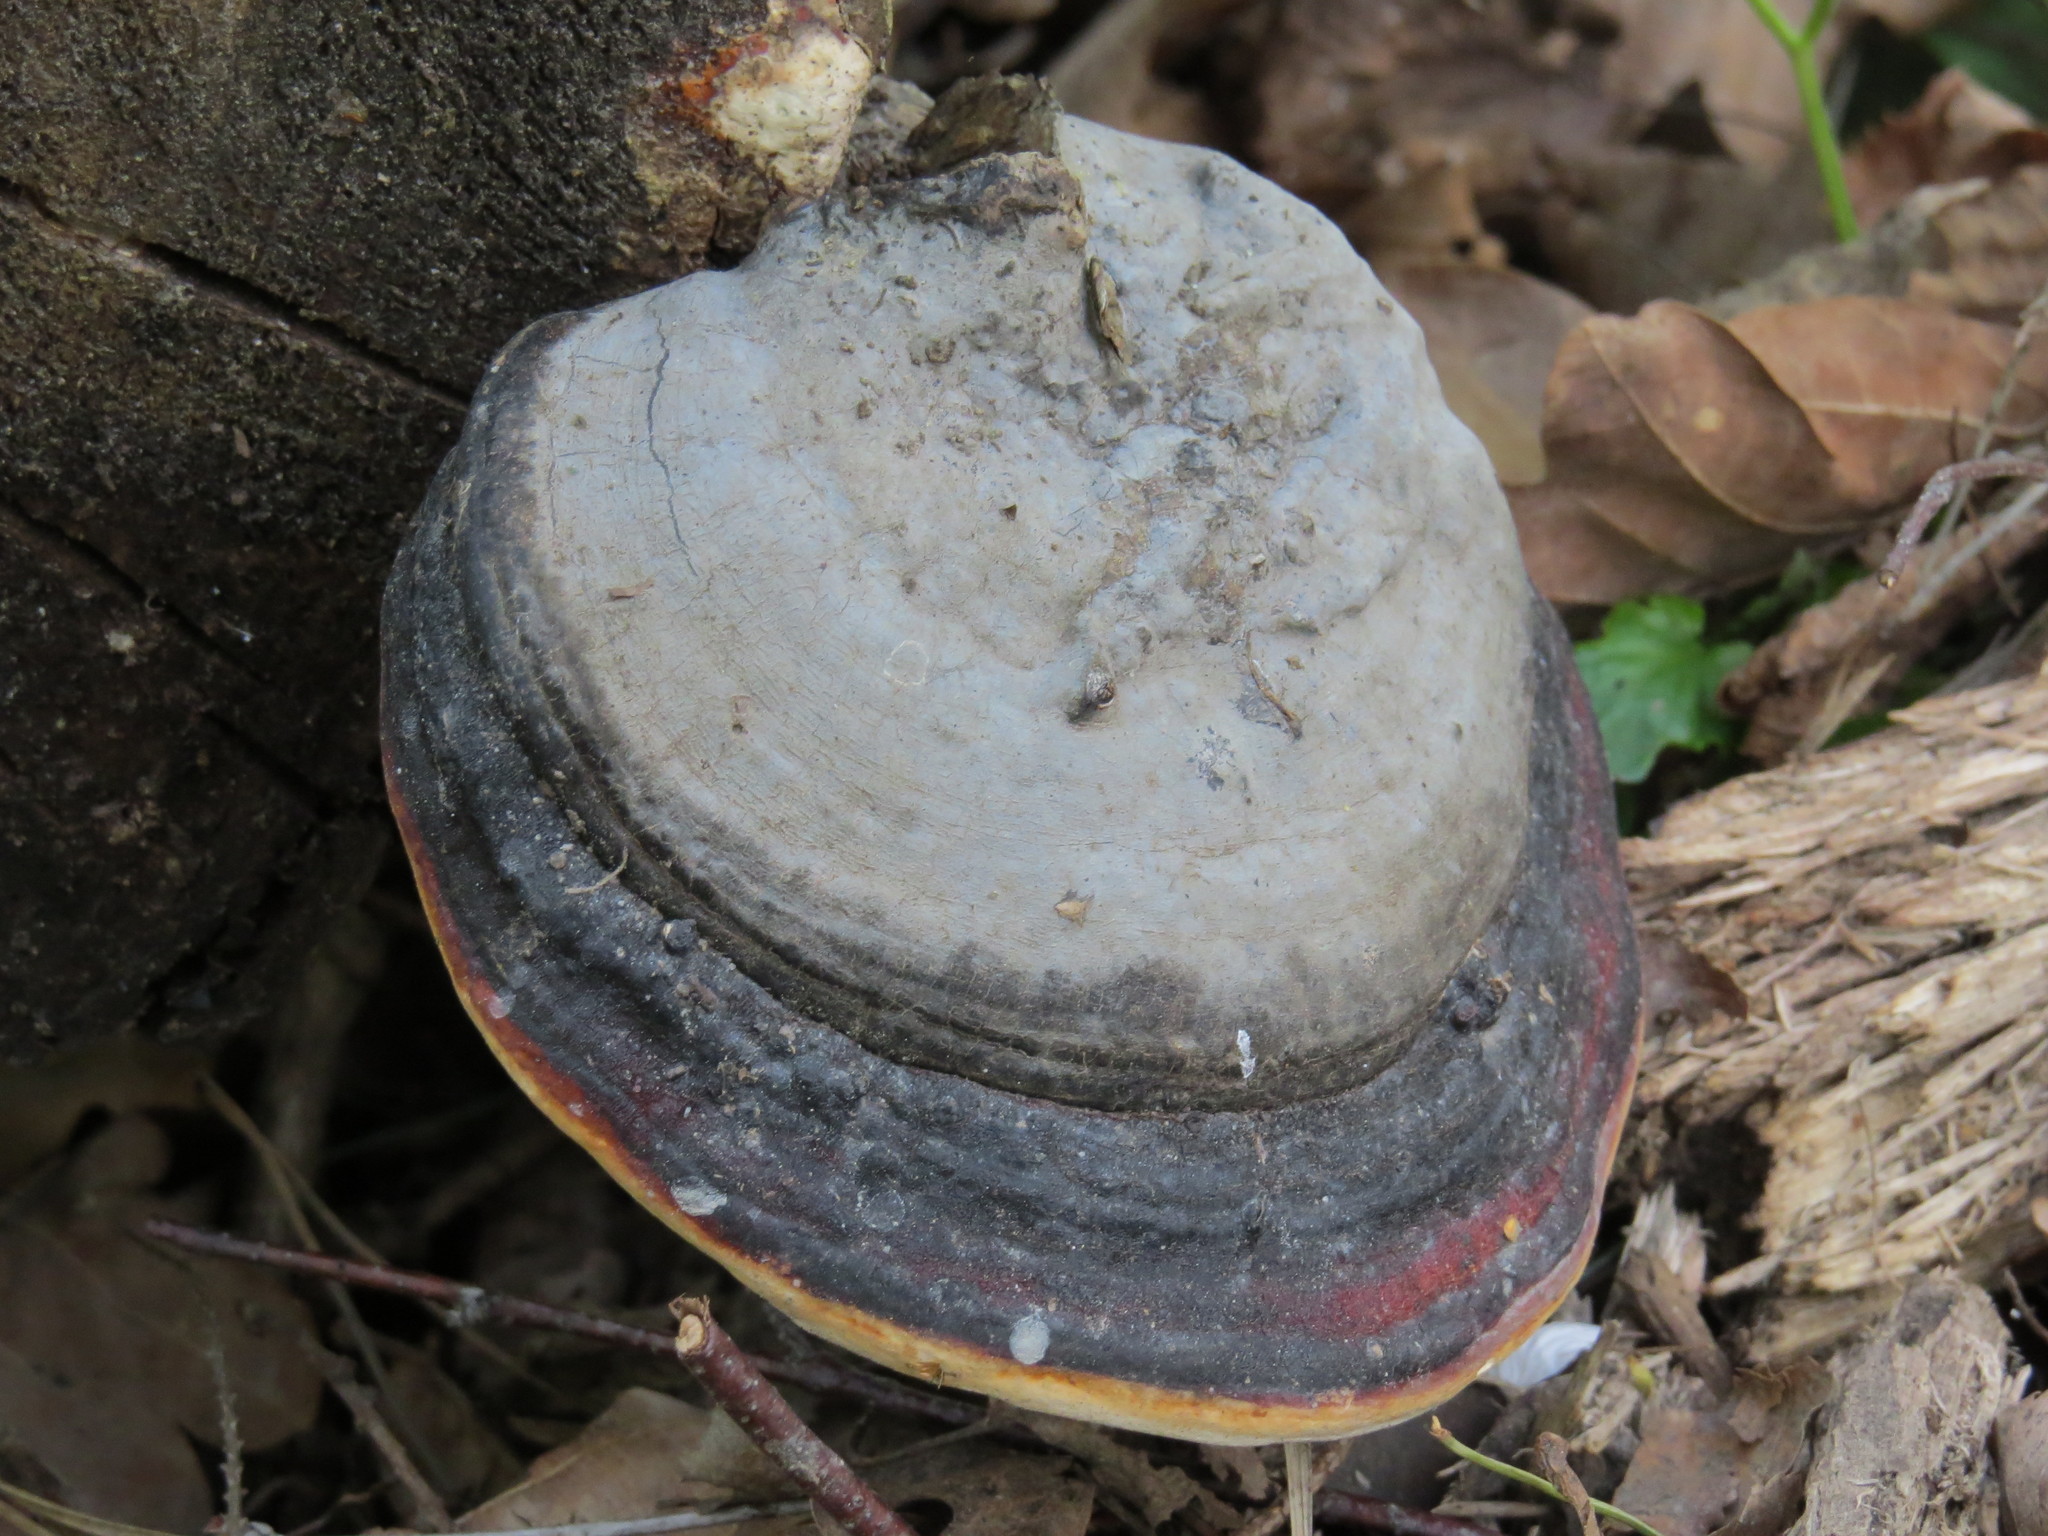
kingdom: Fungi
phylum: Basidiomycota
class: Agaricomycetes
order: Polyporales
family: Fomitopsidaceae
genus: Fomitopsis
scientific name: Fomitopsis pinicola
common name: Red-belted bracket
